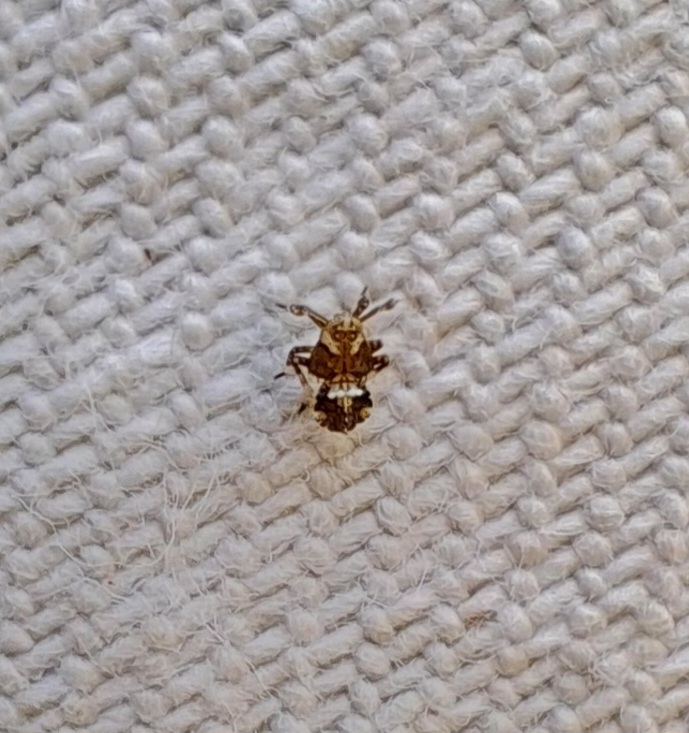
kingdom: Animalia
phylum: Arthropoda
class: Insecta
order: Hemiptera
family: Delphacidae
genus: Asiraca
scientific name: Asiraca clavicornis
